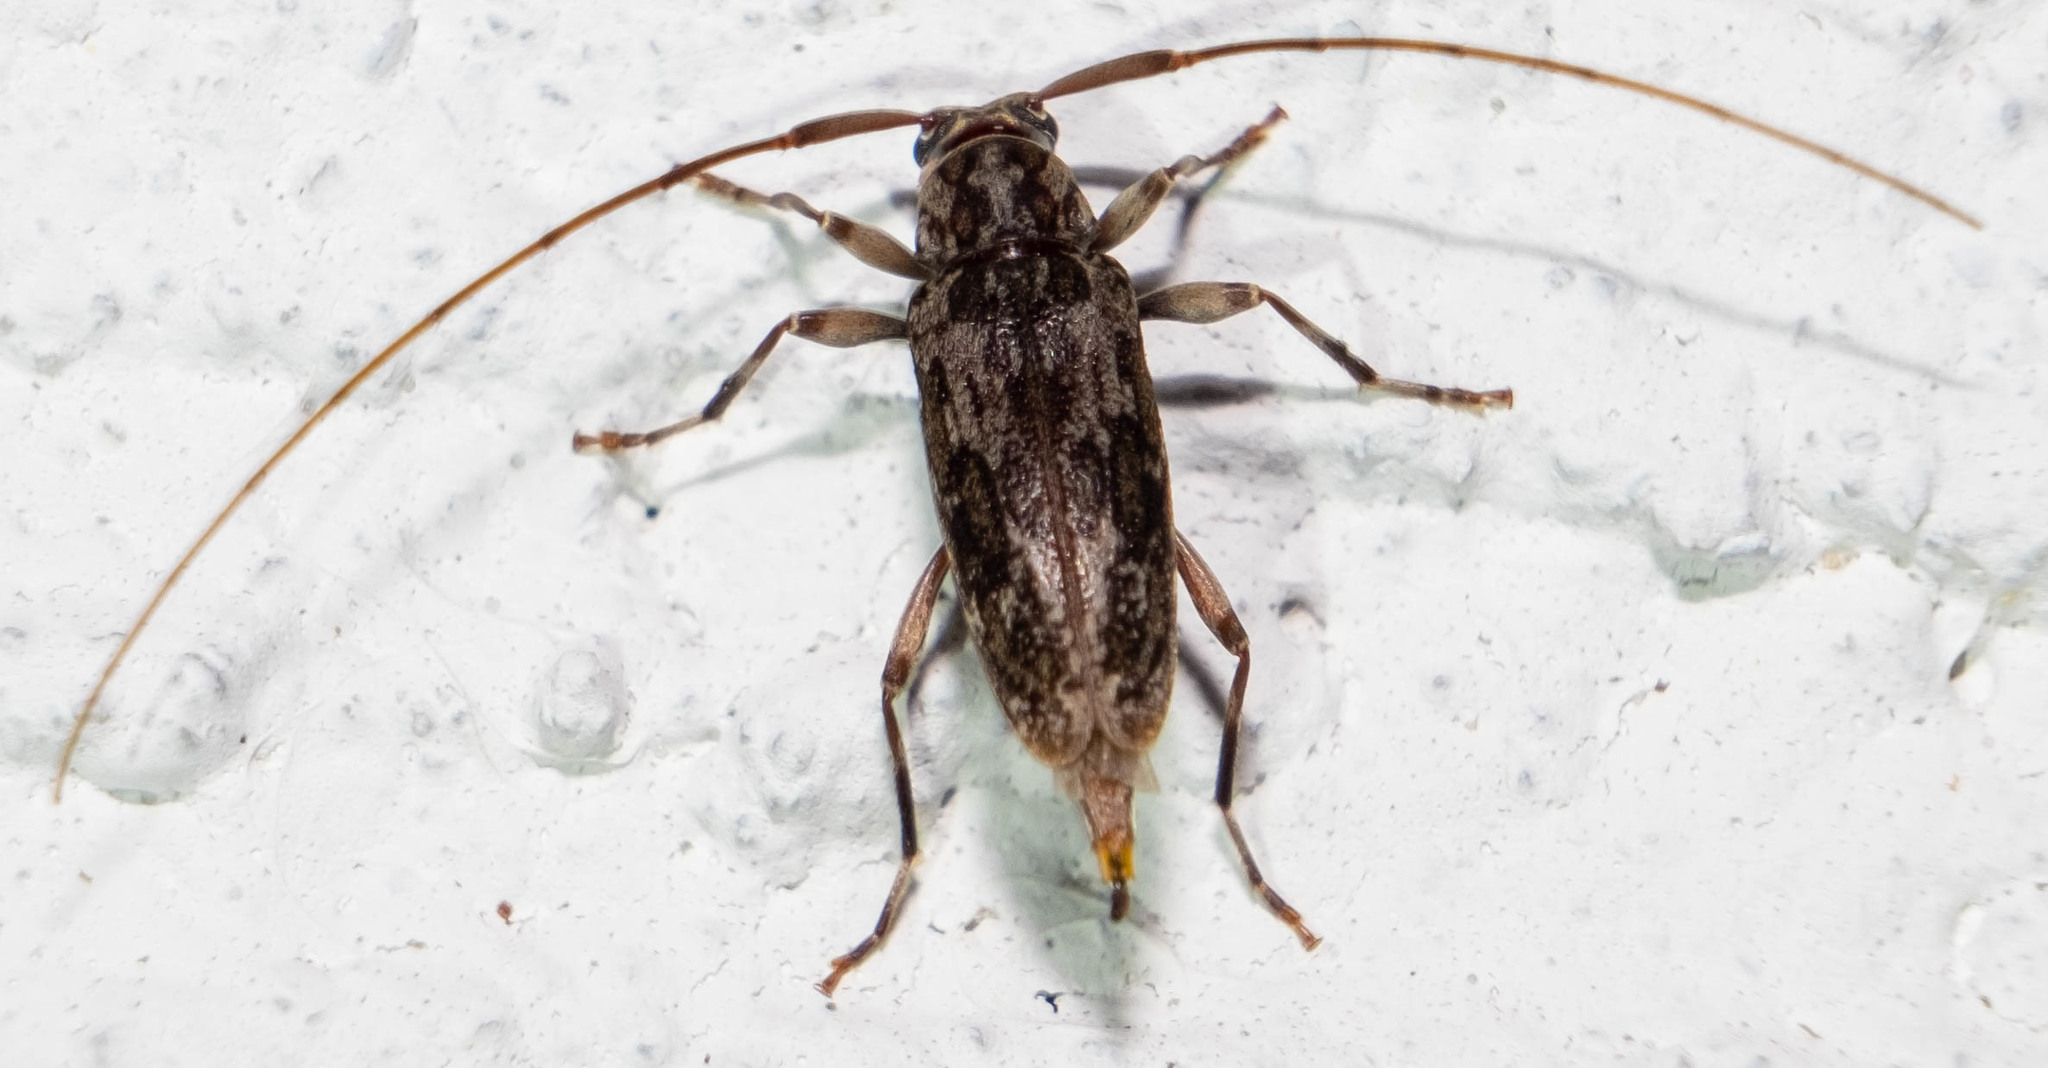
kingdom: Animalia
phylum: Arthropoda
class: Insecta
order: Coleoptera
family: Cerambycidae
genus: Lepturges
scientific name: Lepturges confluens
